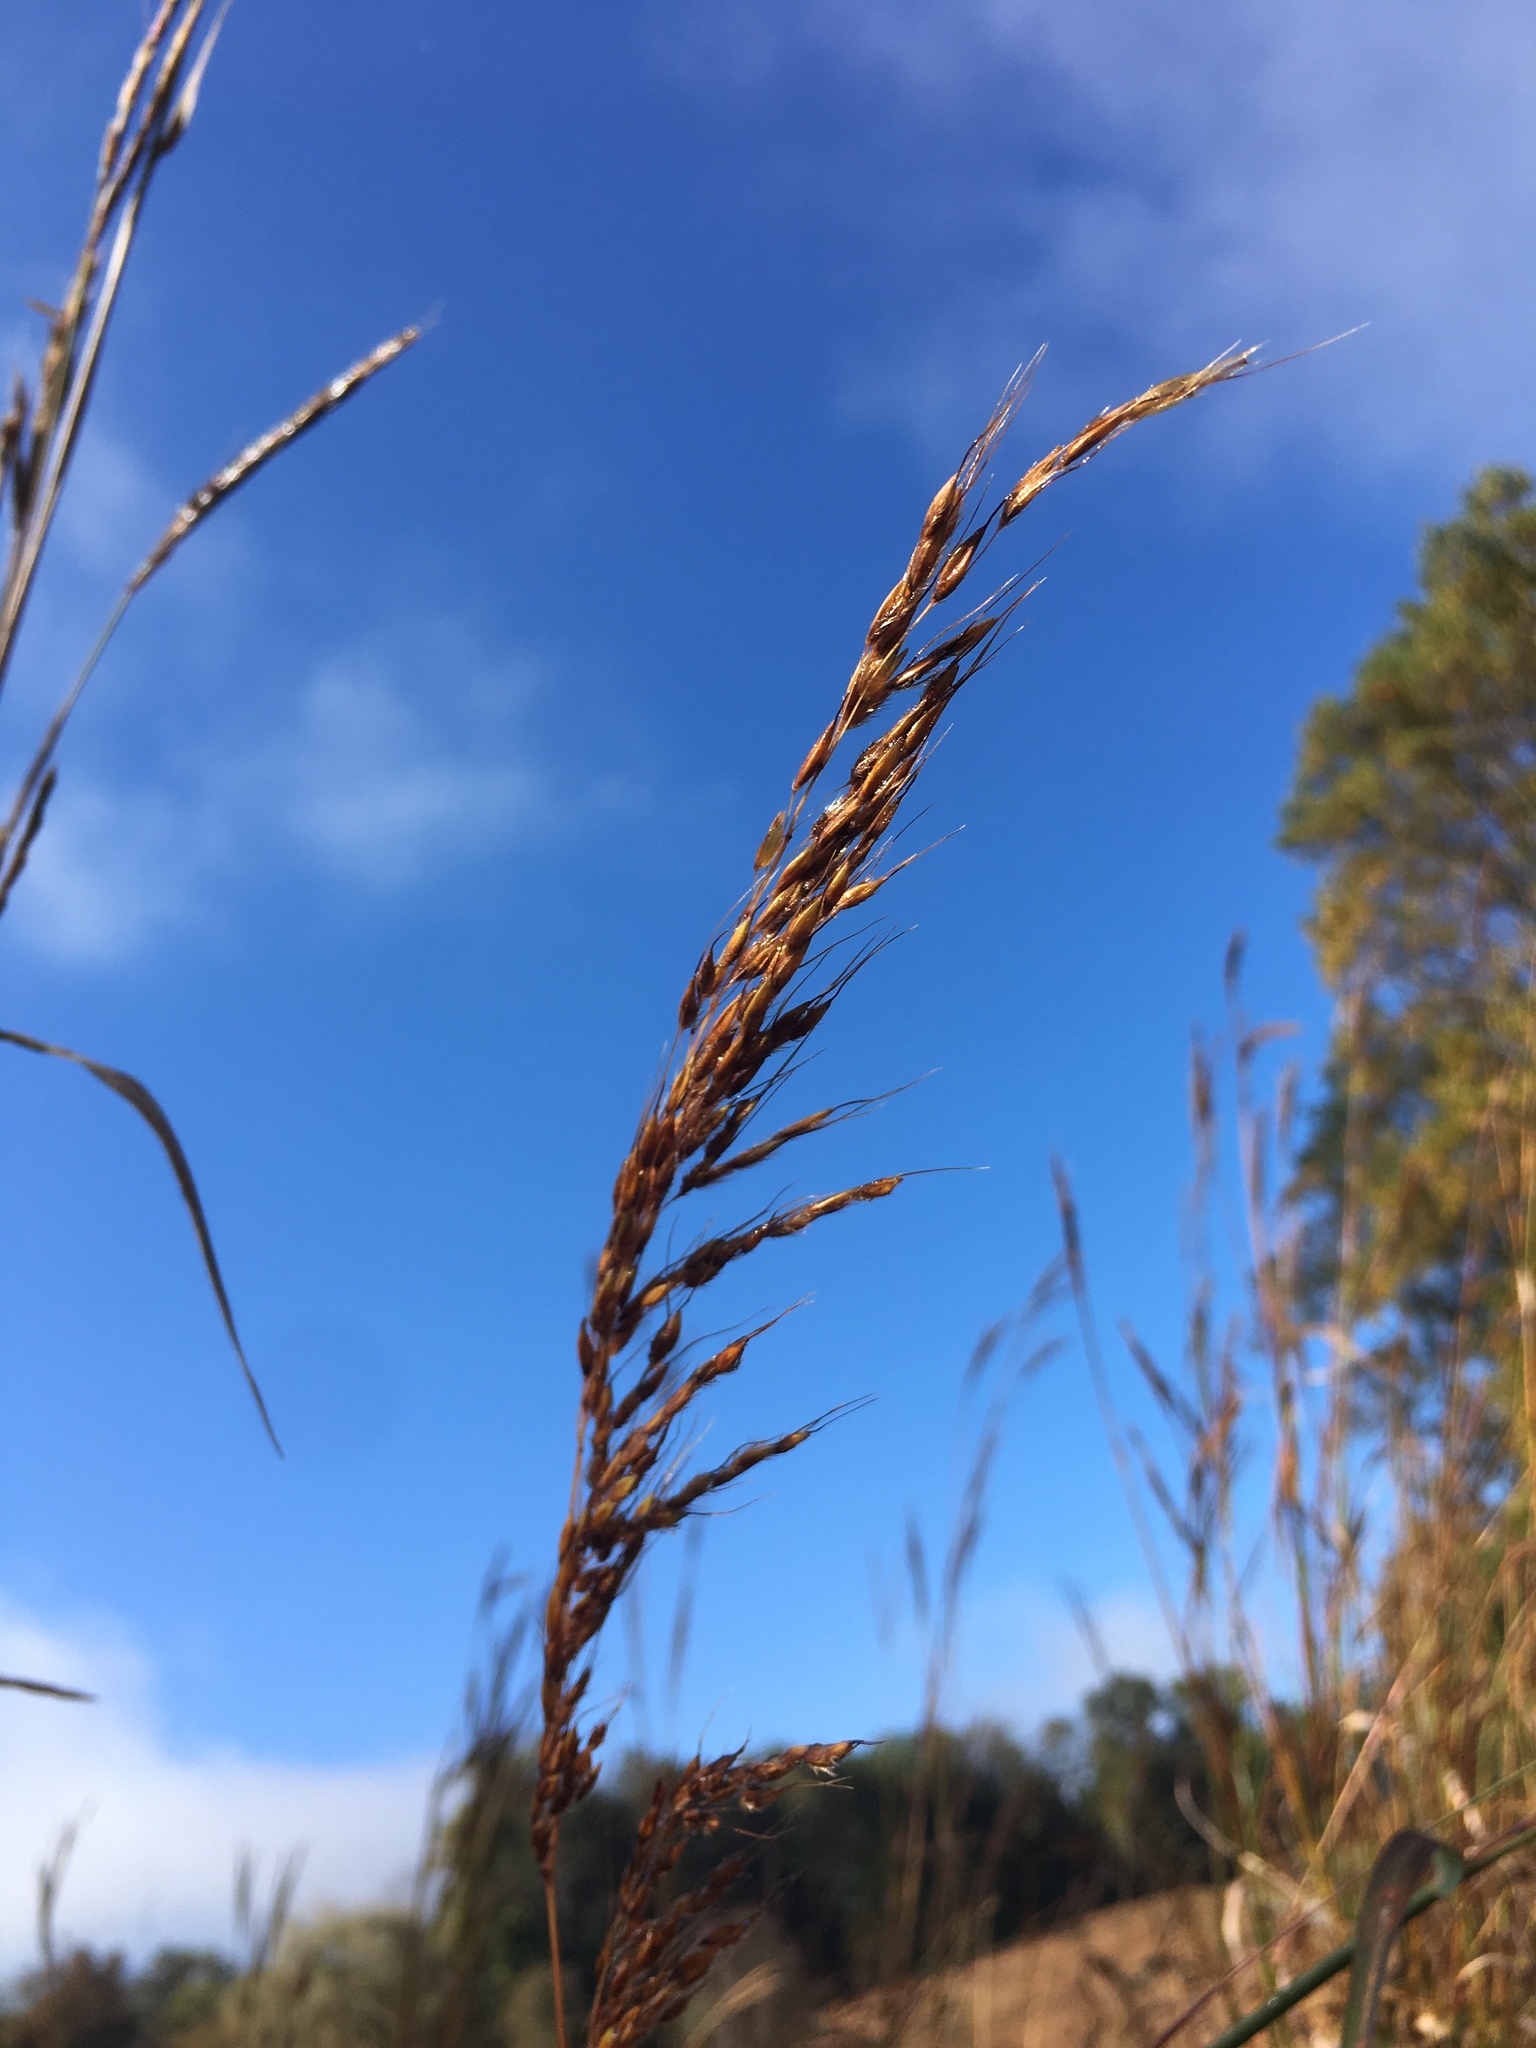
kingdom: Plantae
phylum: Tracheophyta
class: Liliopsida
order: Poales
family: Poaceae
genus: Sorghastrum
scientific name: Sorghastrum nutans
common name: Indian grass
